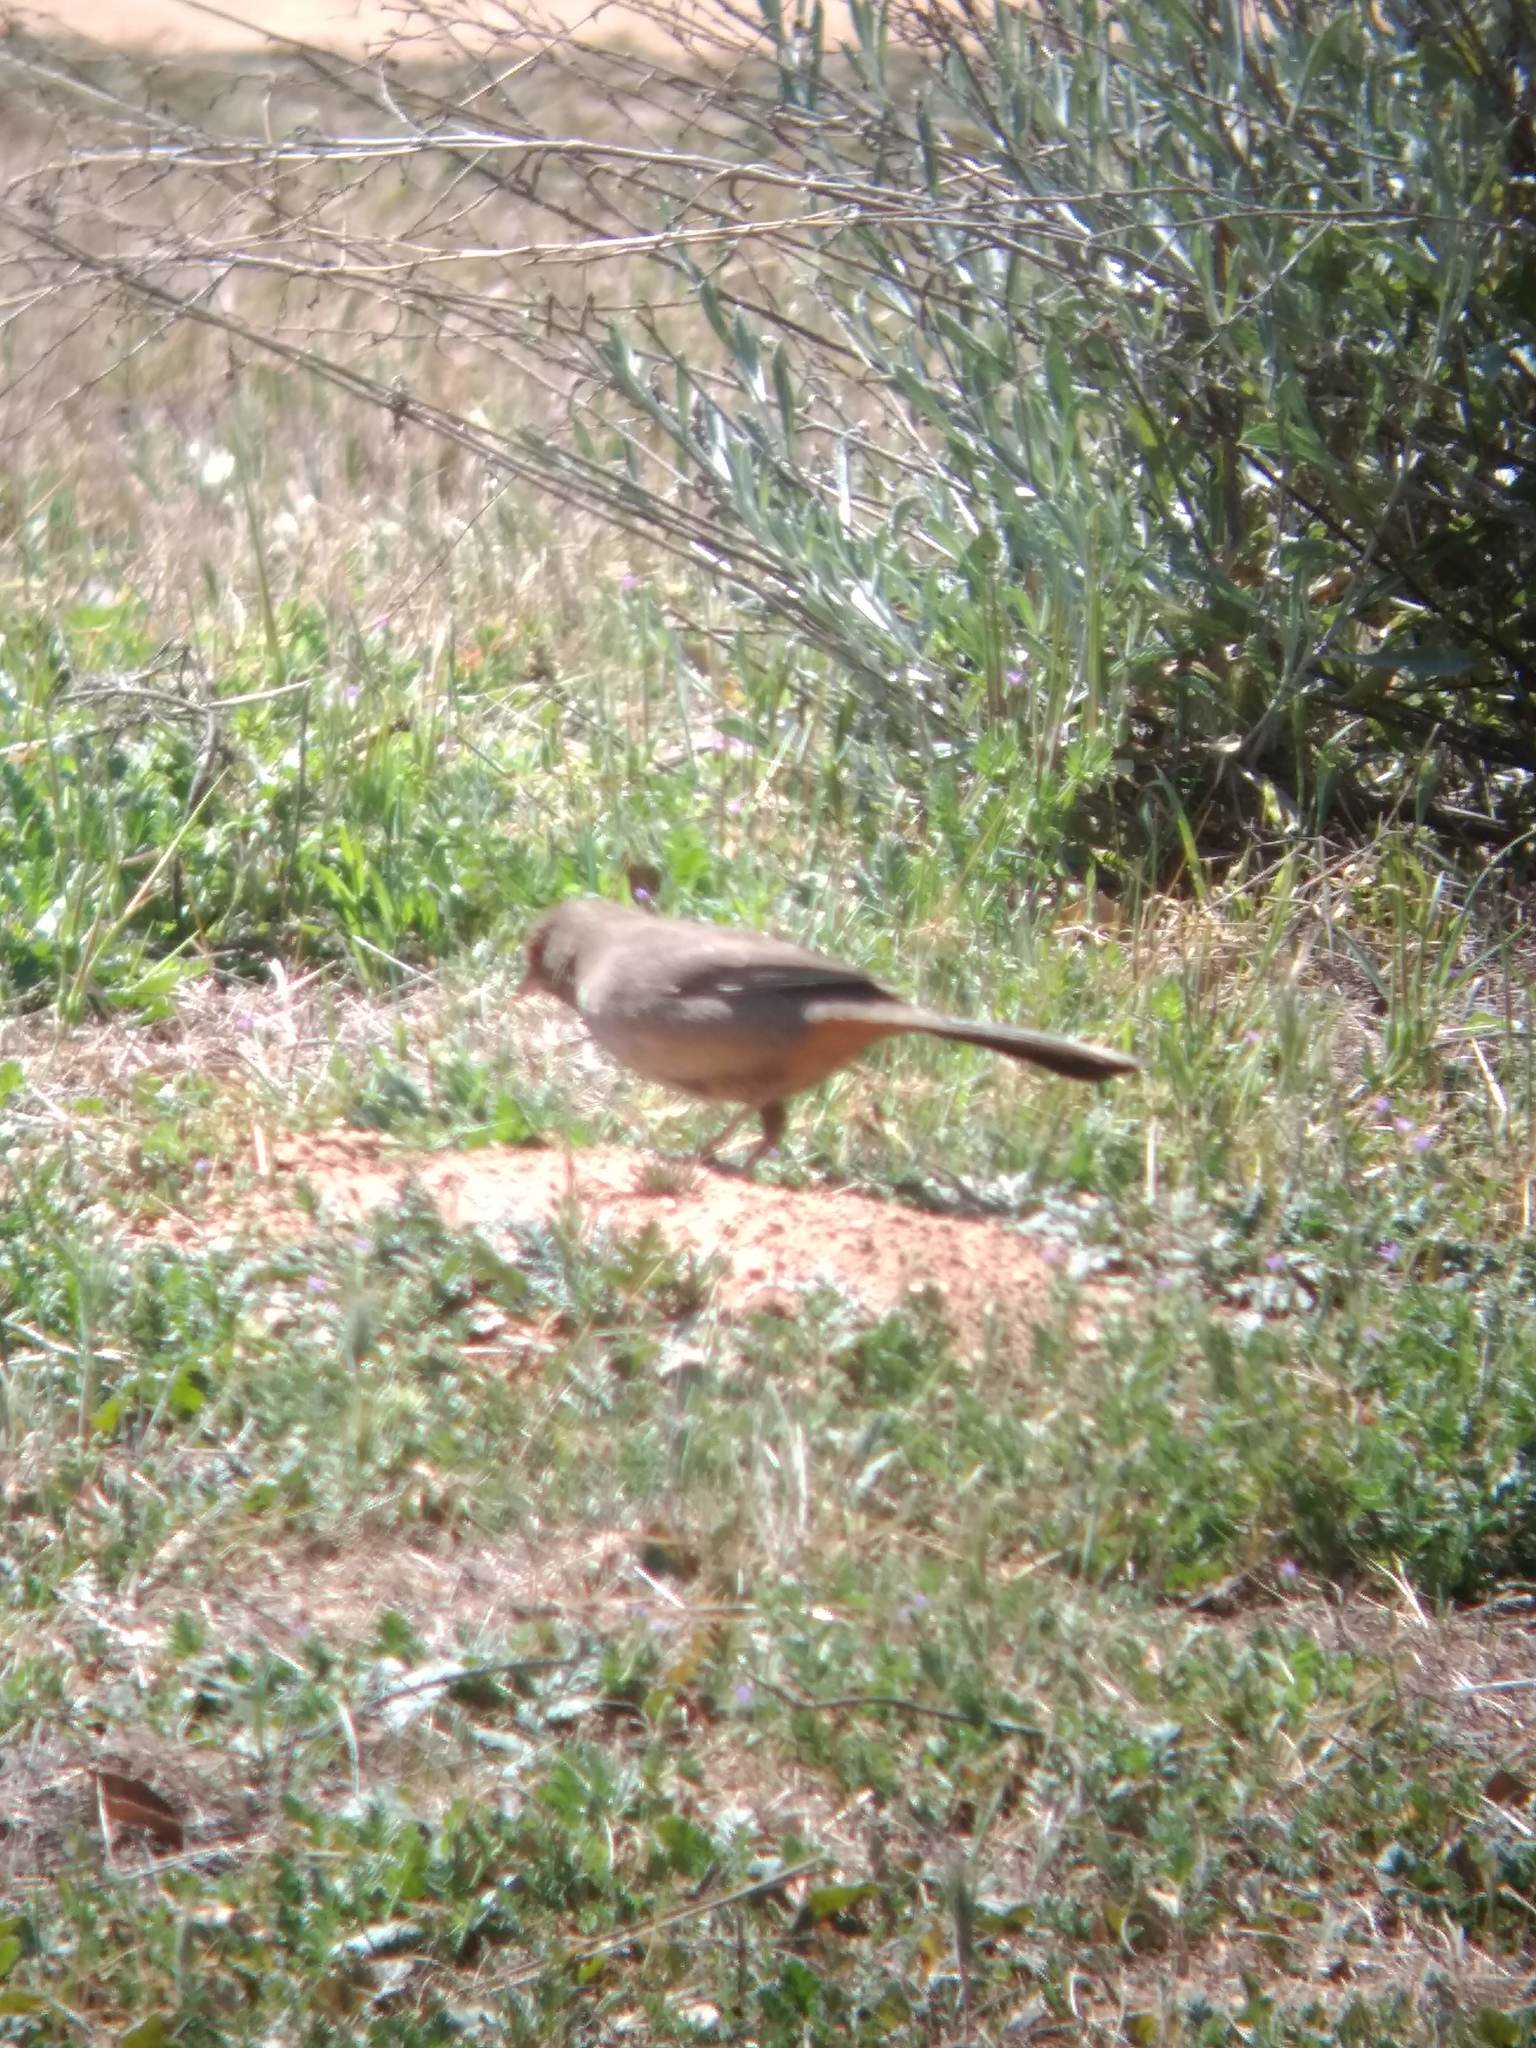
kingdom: Animalia
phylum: Chordata
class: Aves
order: Passeriformes
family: Passerellidae
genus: Melozone
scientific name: Melozone crissalis
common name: California towhee
